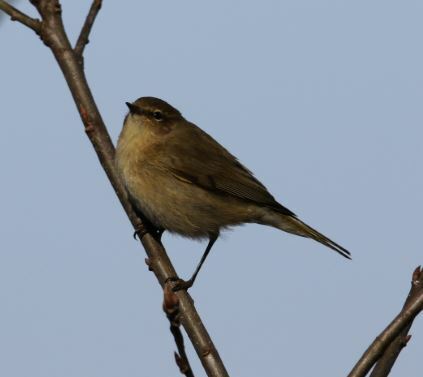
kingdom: Animalia
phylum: Chordata
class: Aves
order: Passeriformes
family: Phylloscopidae
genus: Phylloscopus
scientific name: Phylloscopus collybita
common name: Common chiffchaff
